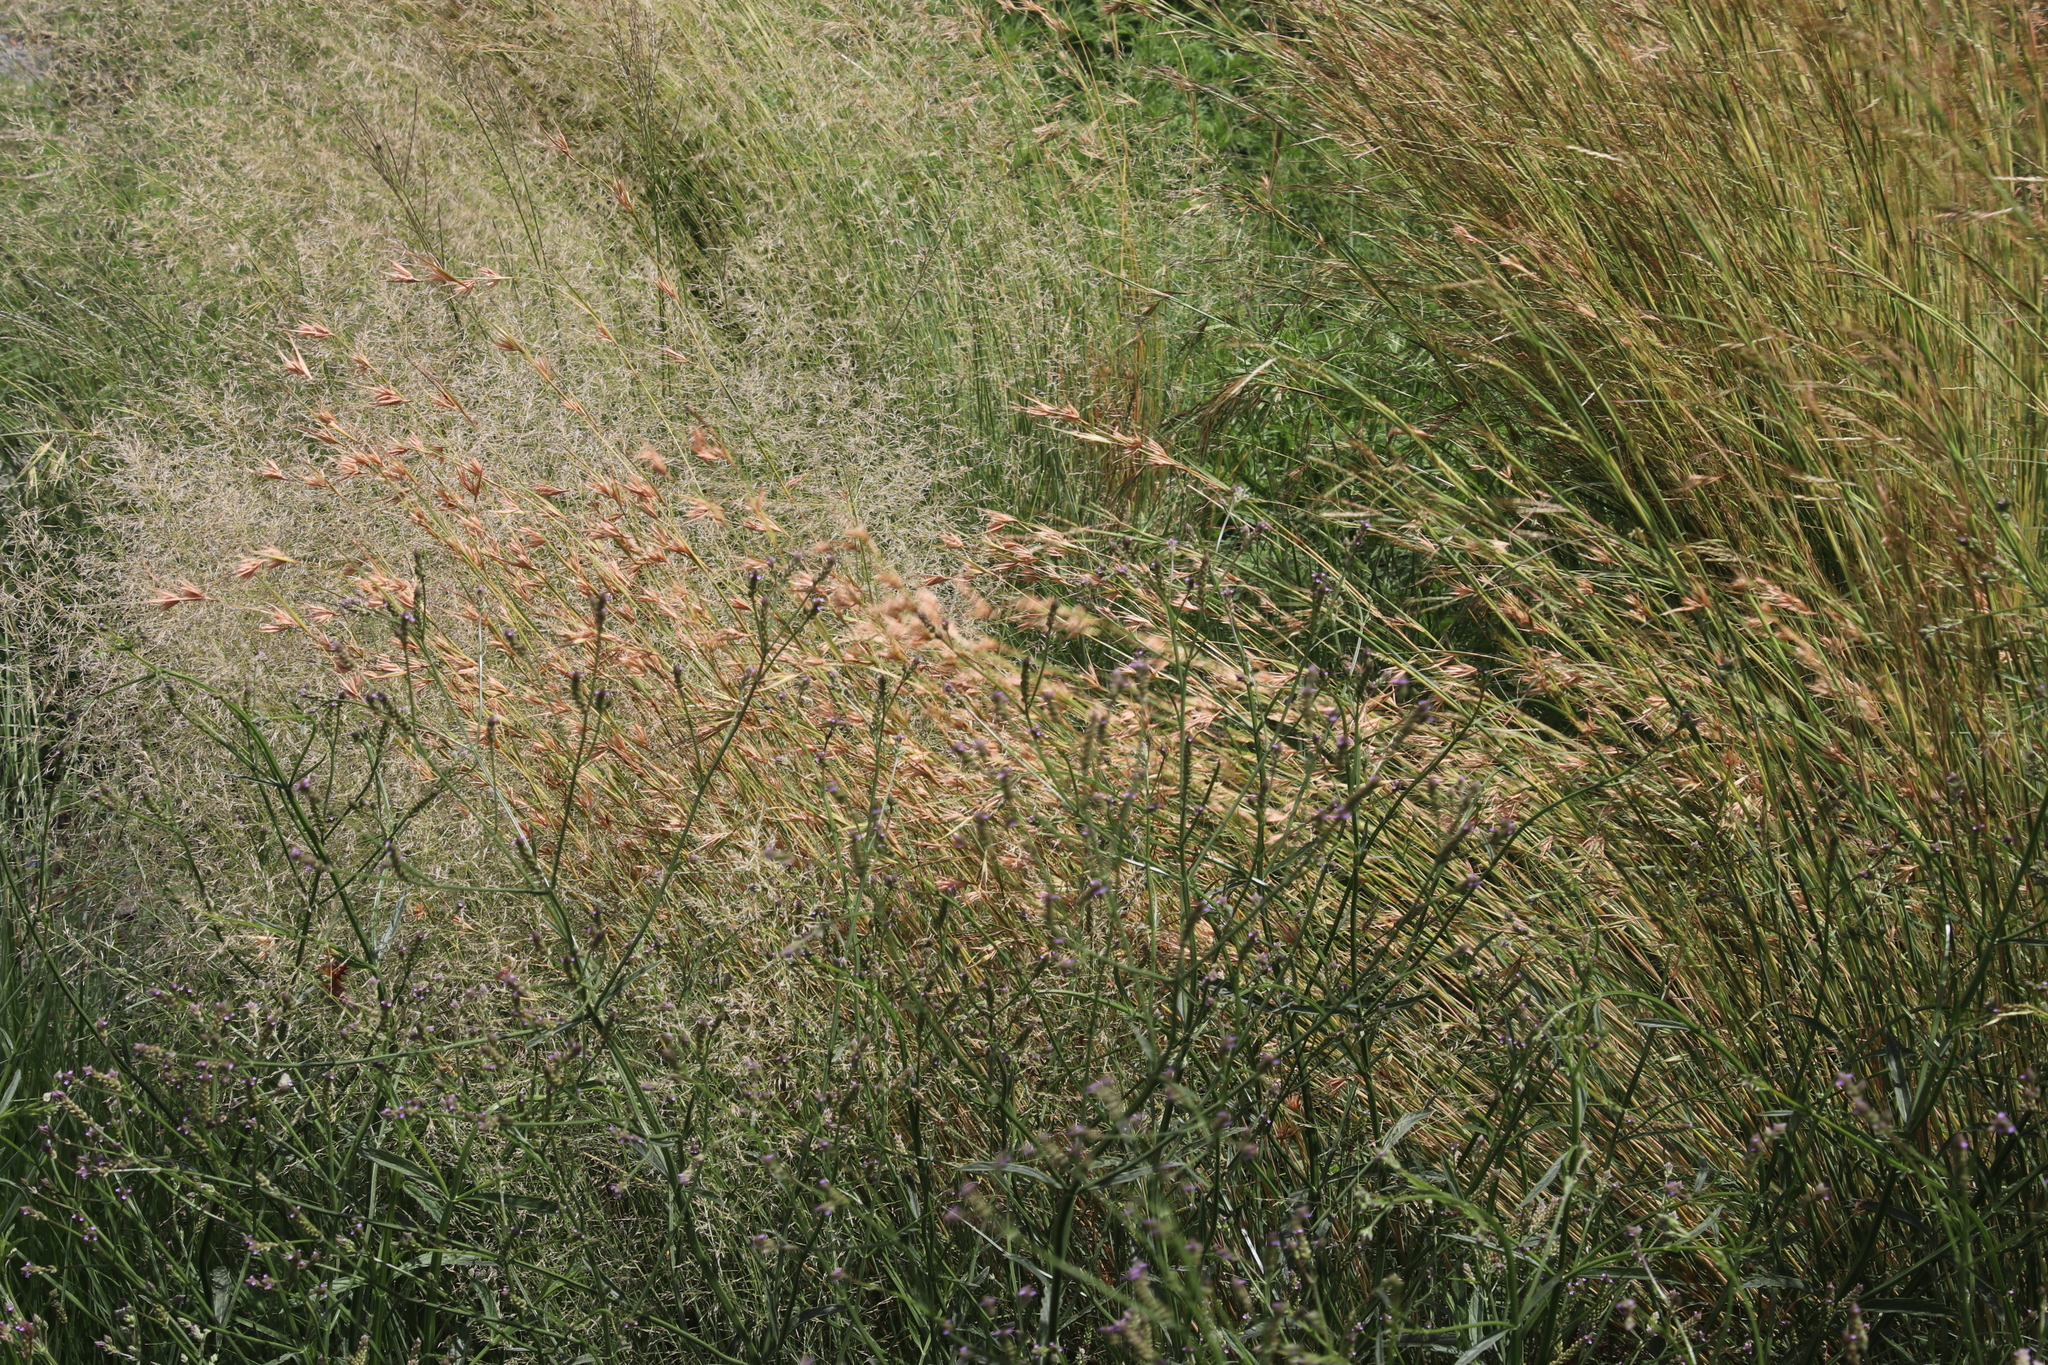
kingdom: Plantae
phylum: Tracheophyta
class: Liliopsida
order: Poales
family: Poaceae
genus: Themeda
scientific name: Themeda triandra
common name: Kangaroo grass
